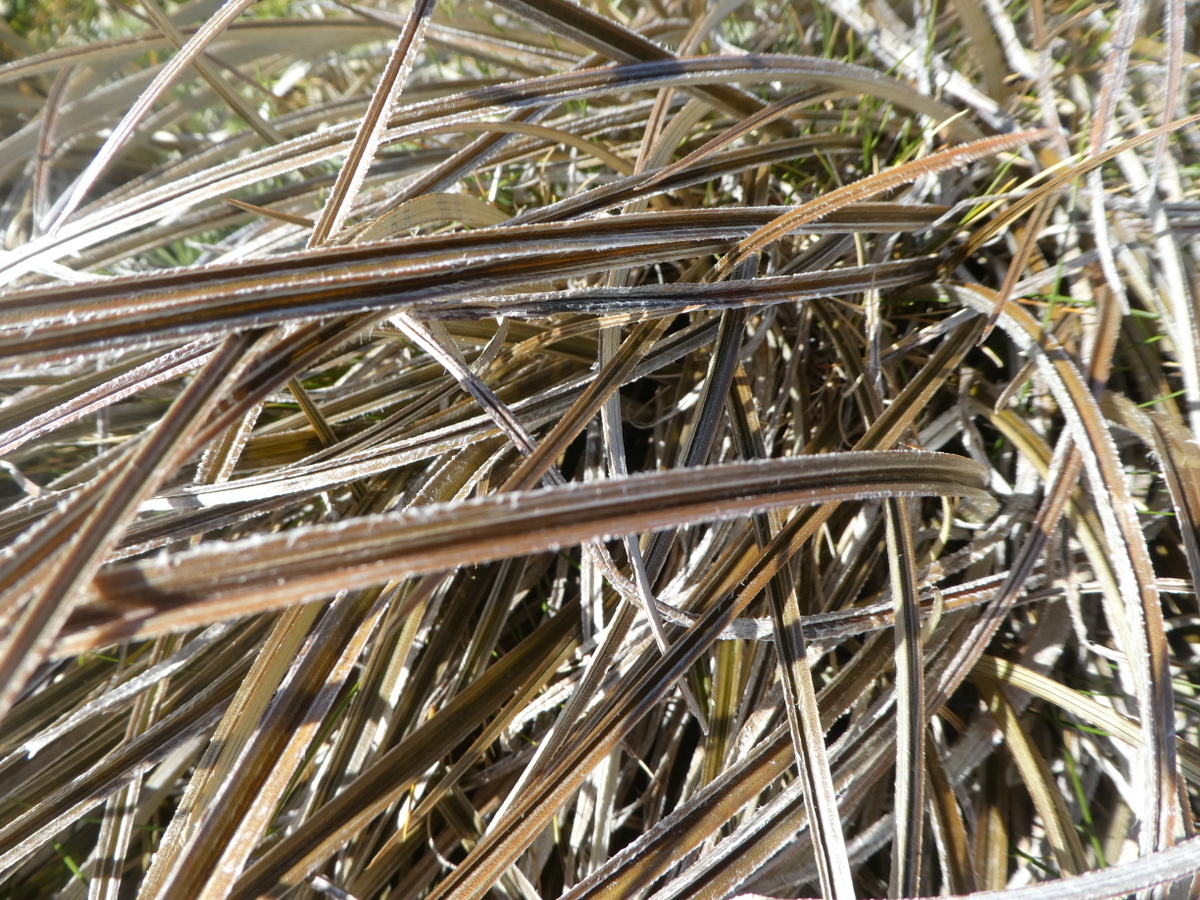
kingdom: Plantae
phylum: Tracheophyta
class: Liliopsida
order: Asparagales
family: Asteliaceae
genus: Astelia
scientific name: Astelia nivicola
